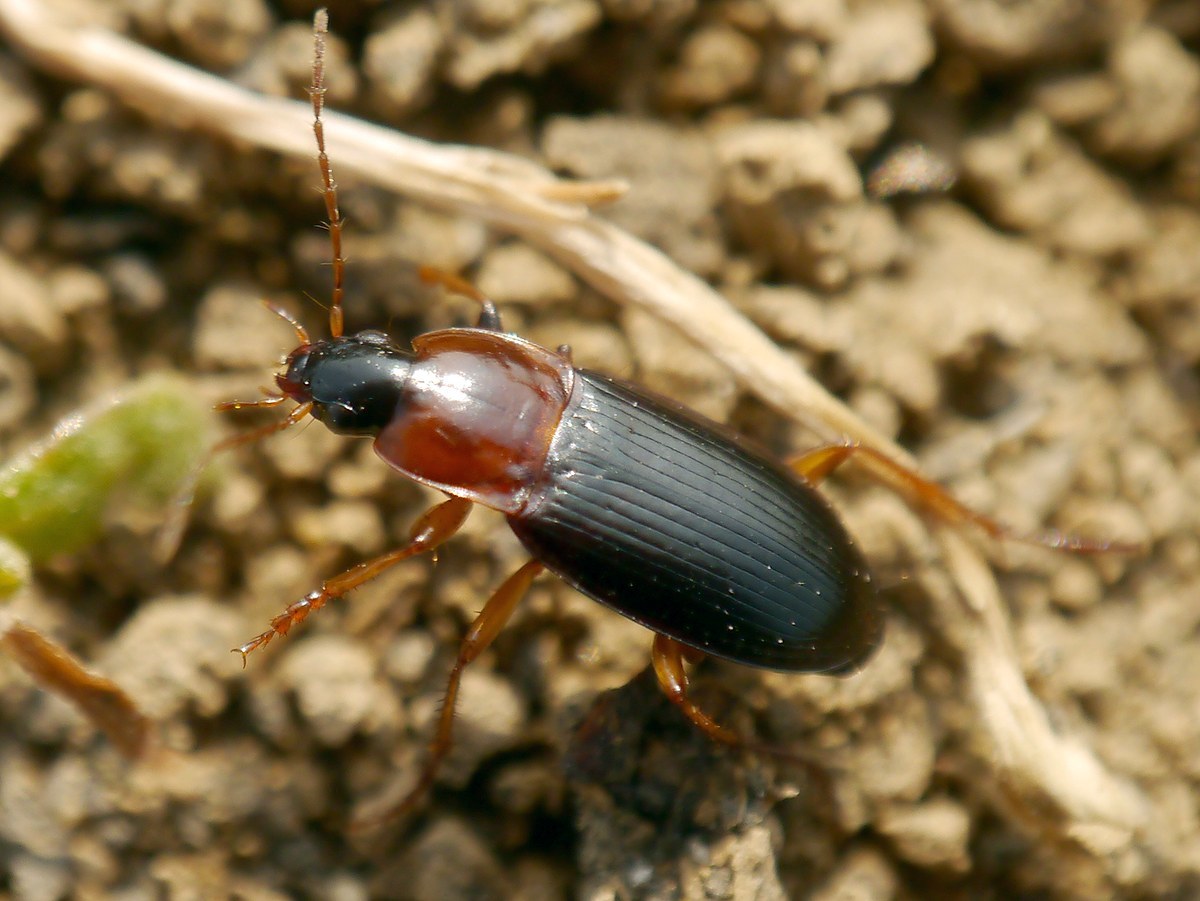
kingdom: Animalia
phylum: Arthropoda
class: Insecta
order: Coleoptera
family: Carabidae
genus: Calathus
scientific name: Calathus melanocephalus
